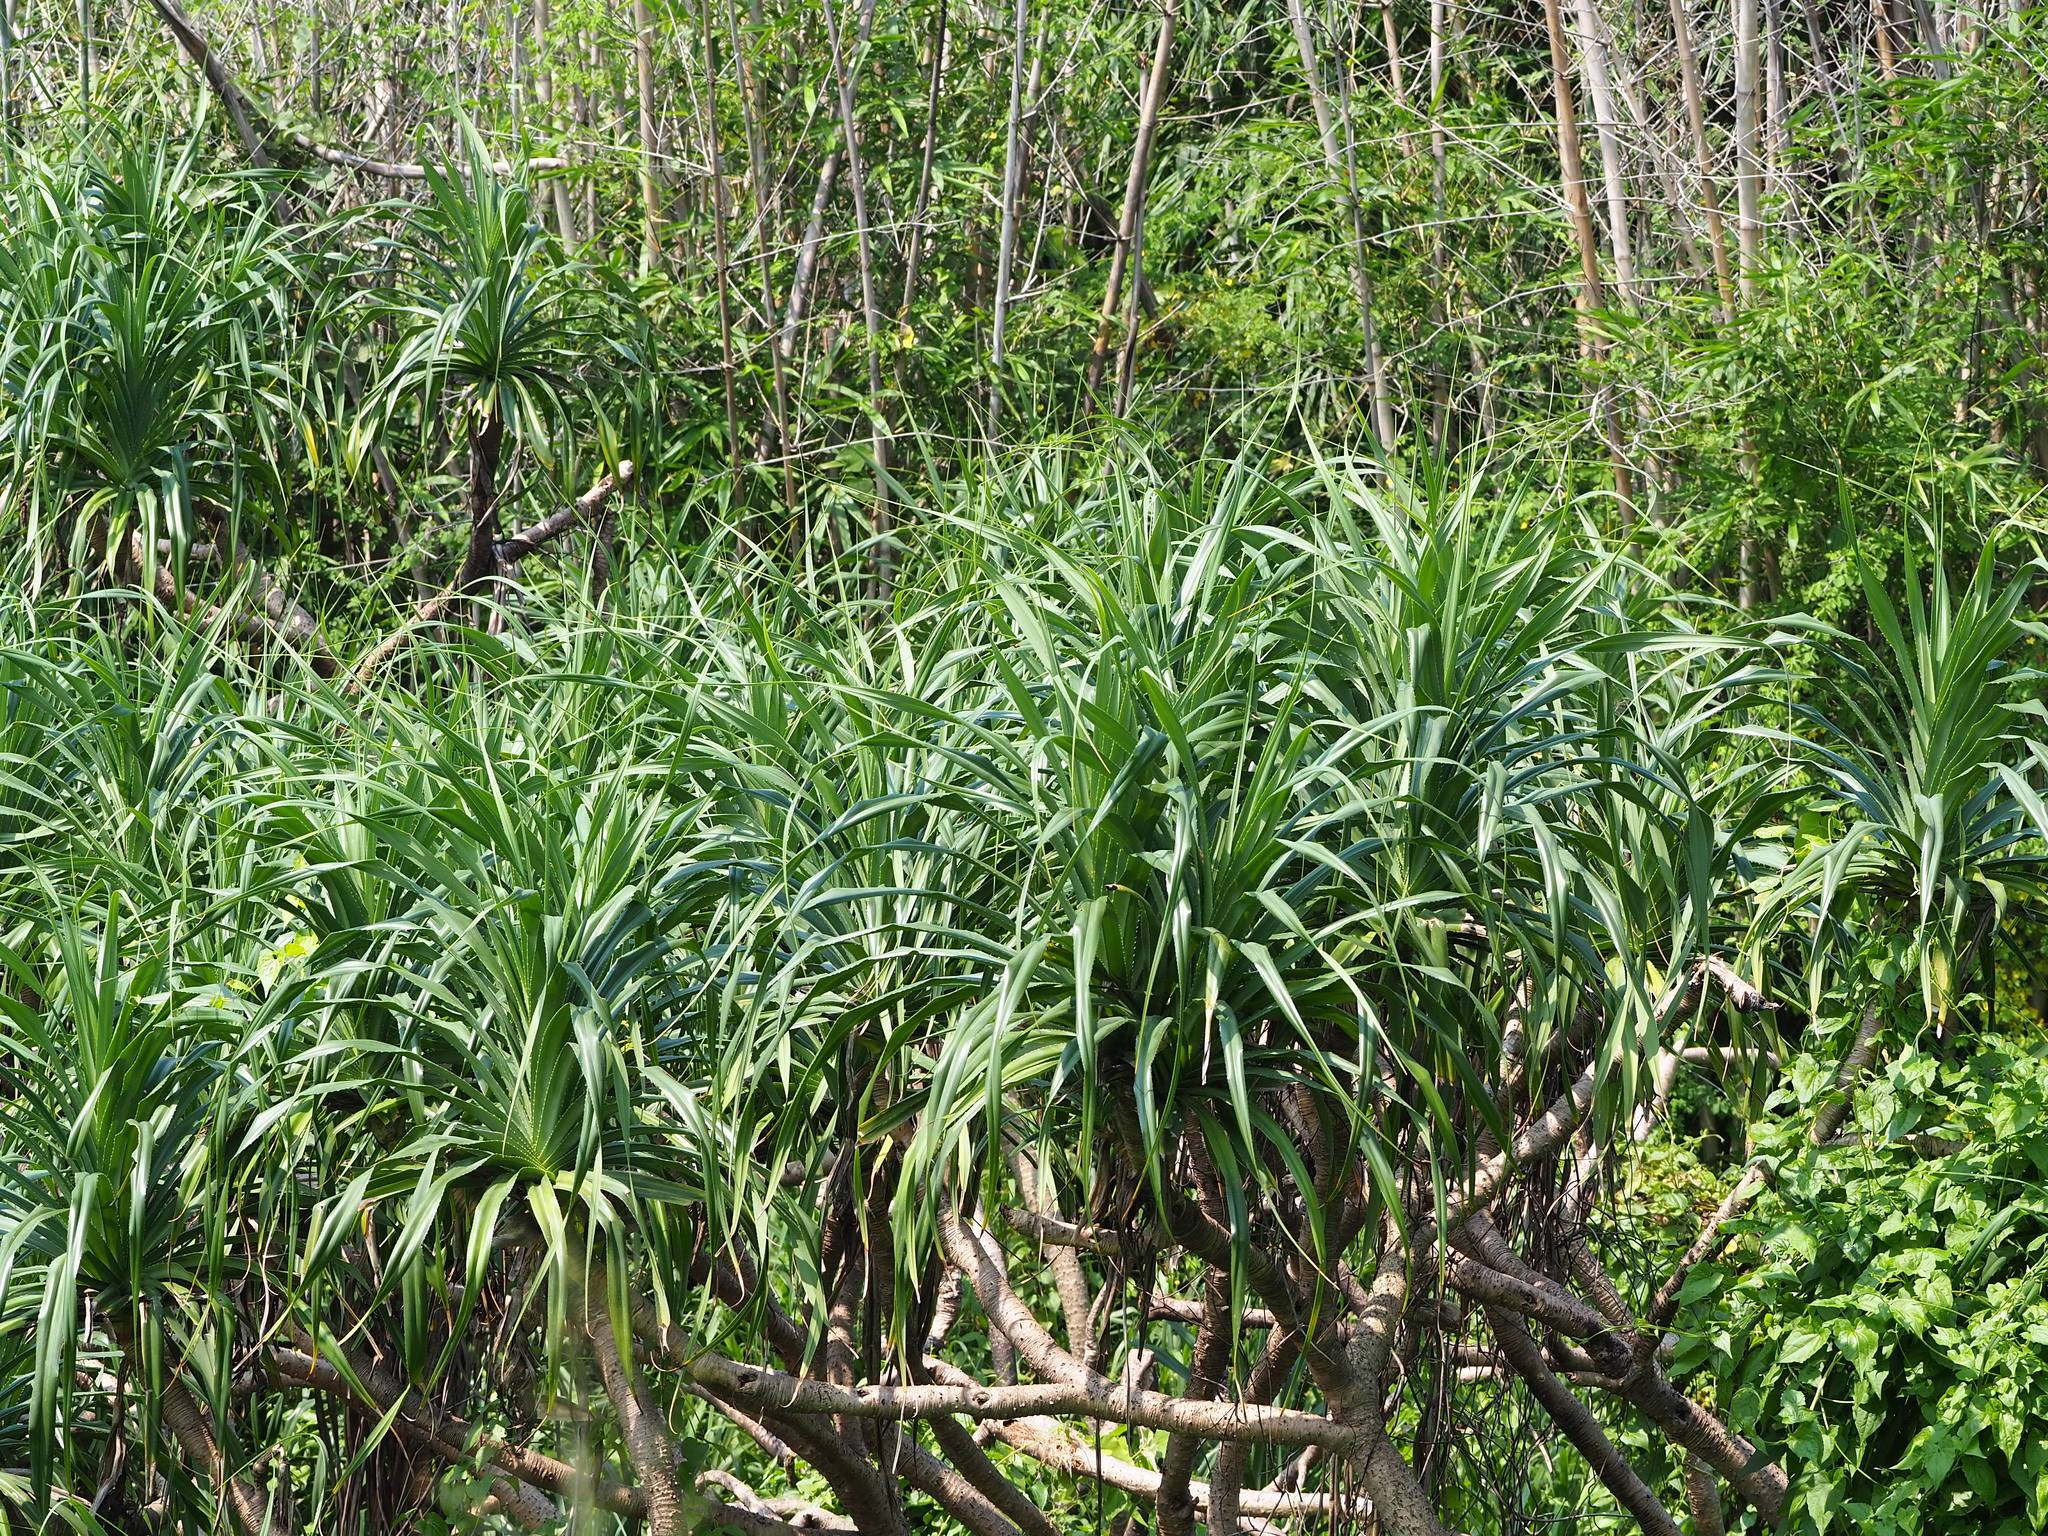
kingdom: Plantae
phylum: Tracheophyta
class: Liliopsida
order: Pandanales
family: Pandanaceae
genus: Pandanus
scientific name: Pandanus odorifer
